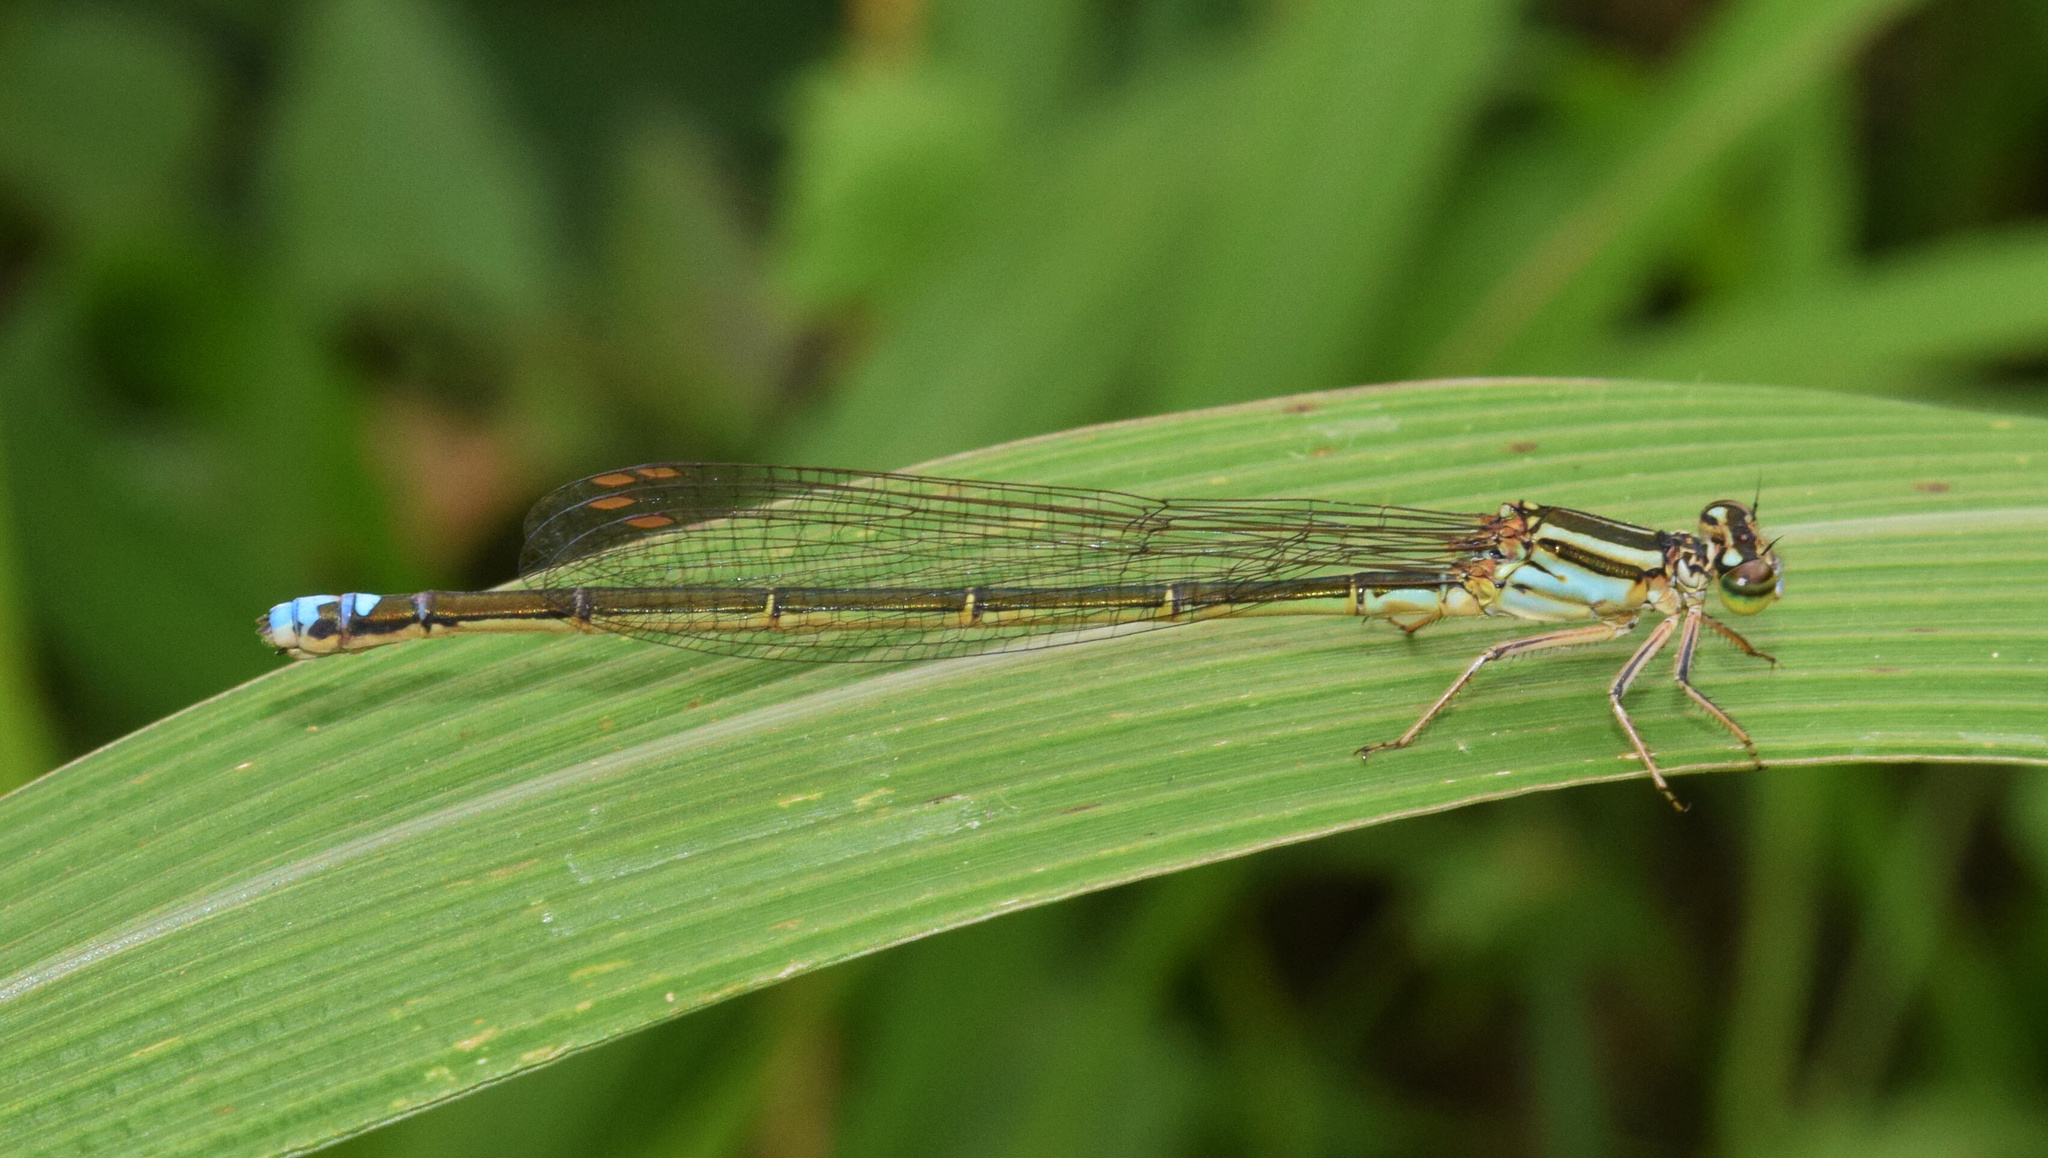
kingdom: Animalia
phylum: Arthropoda
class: Insecta
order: Odonata
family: Coenagrionidae
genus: Pseudagrion
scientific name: Pseudagrion salisburyense
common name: Slate sprite
